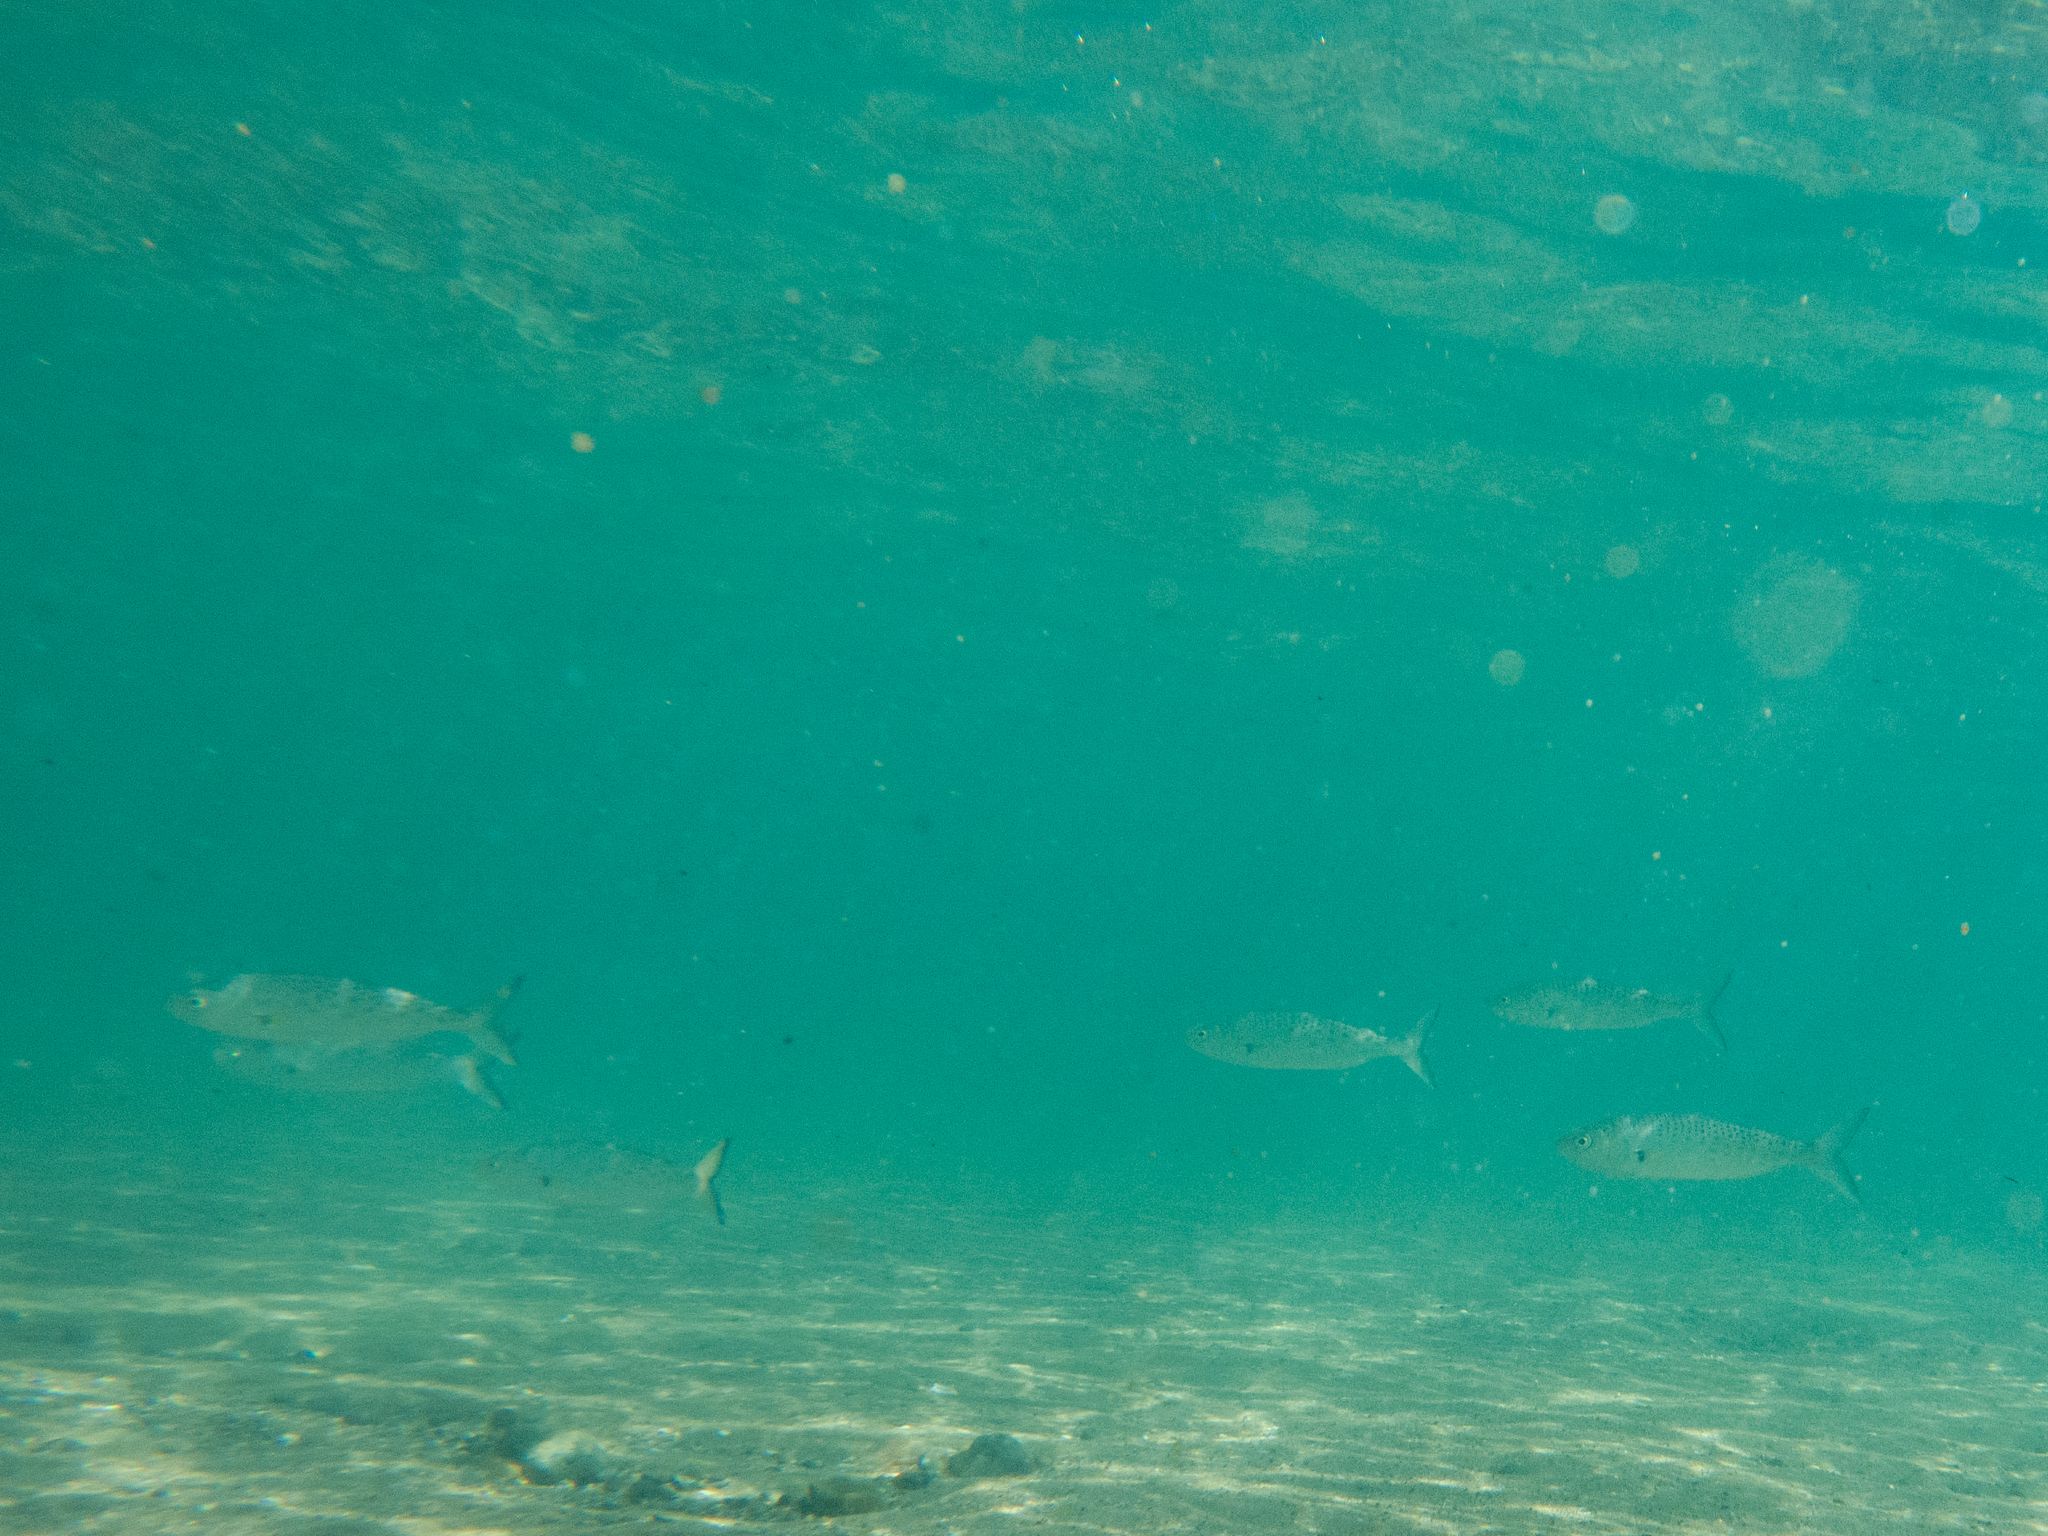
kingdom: Animalia
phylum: Chordata
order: Perciformes
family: Arripidae
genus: Arripis
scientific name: Arripis trutta
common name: Kahawai
